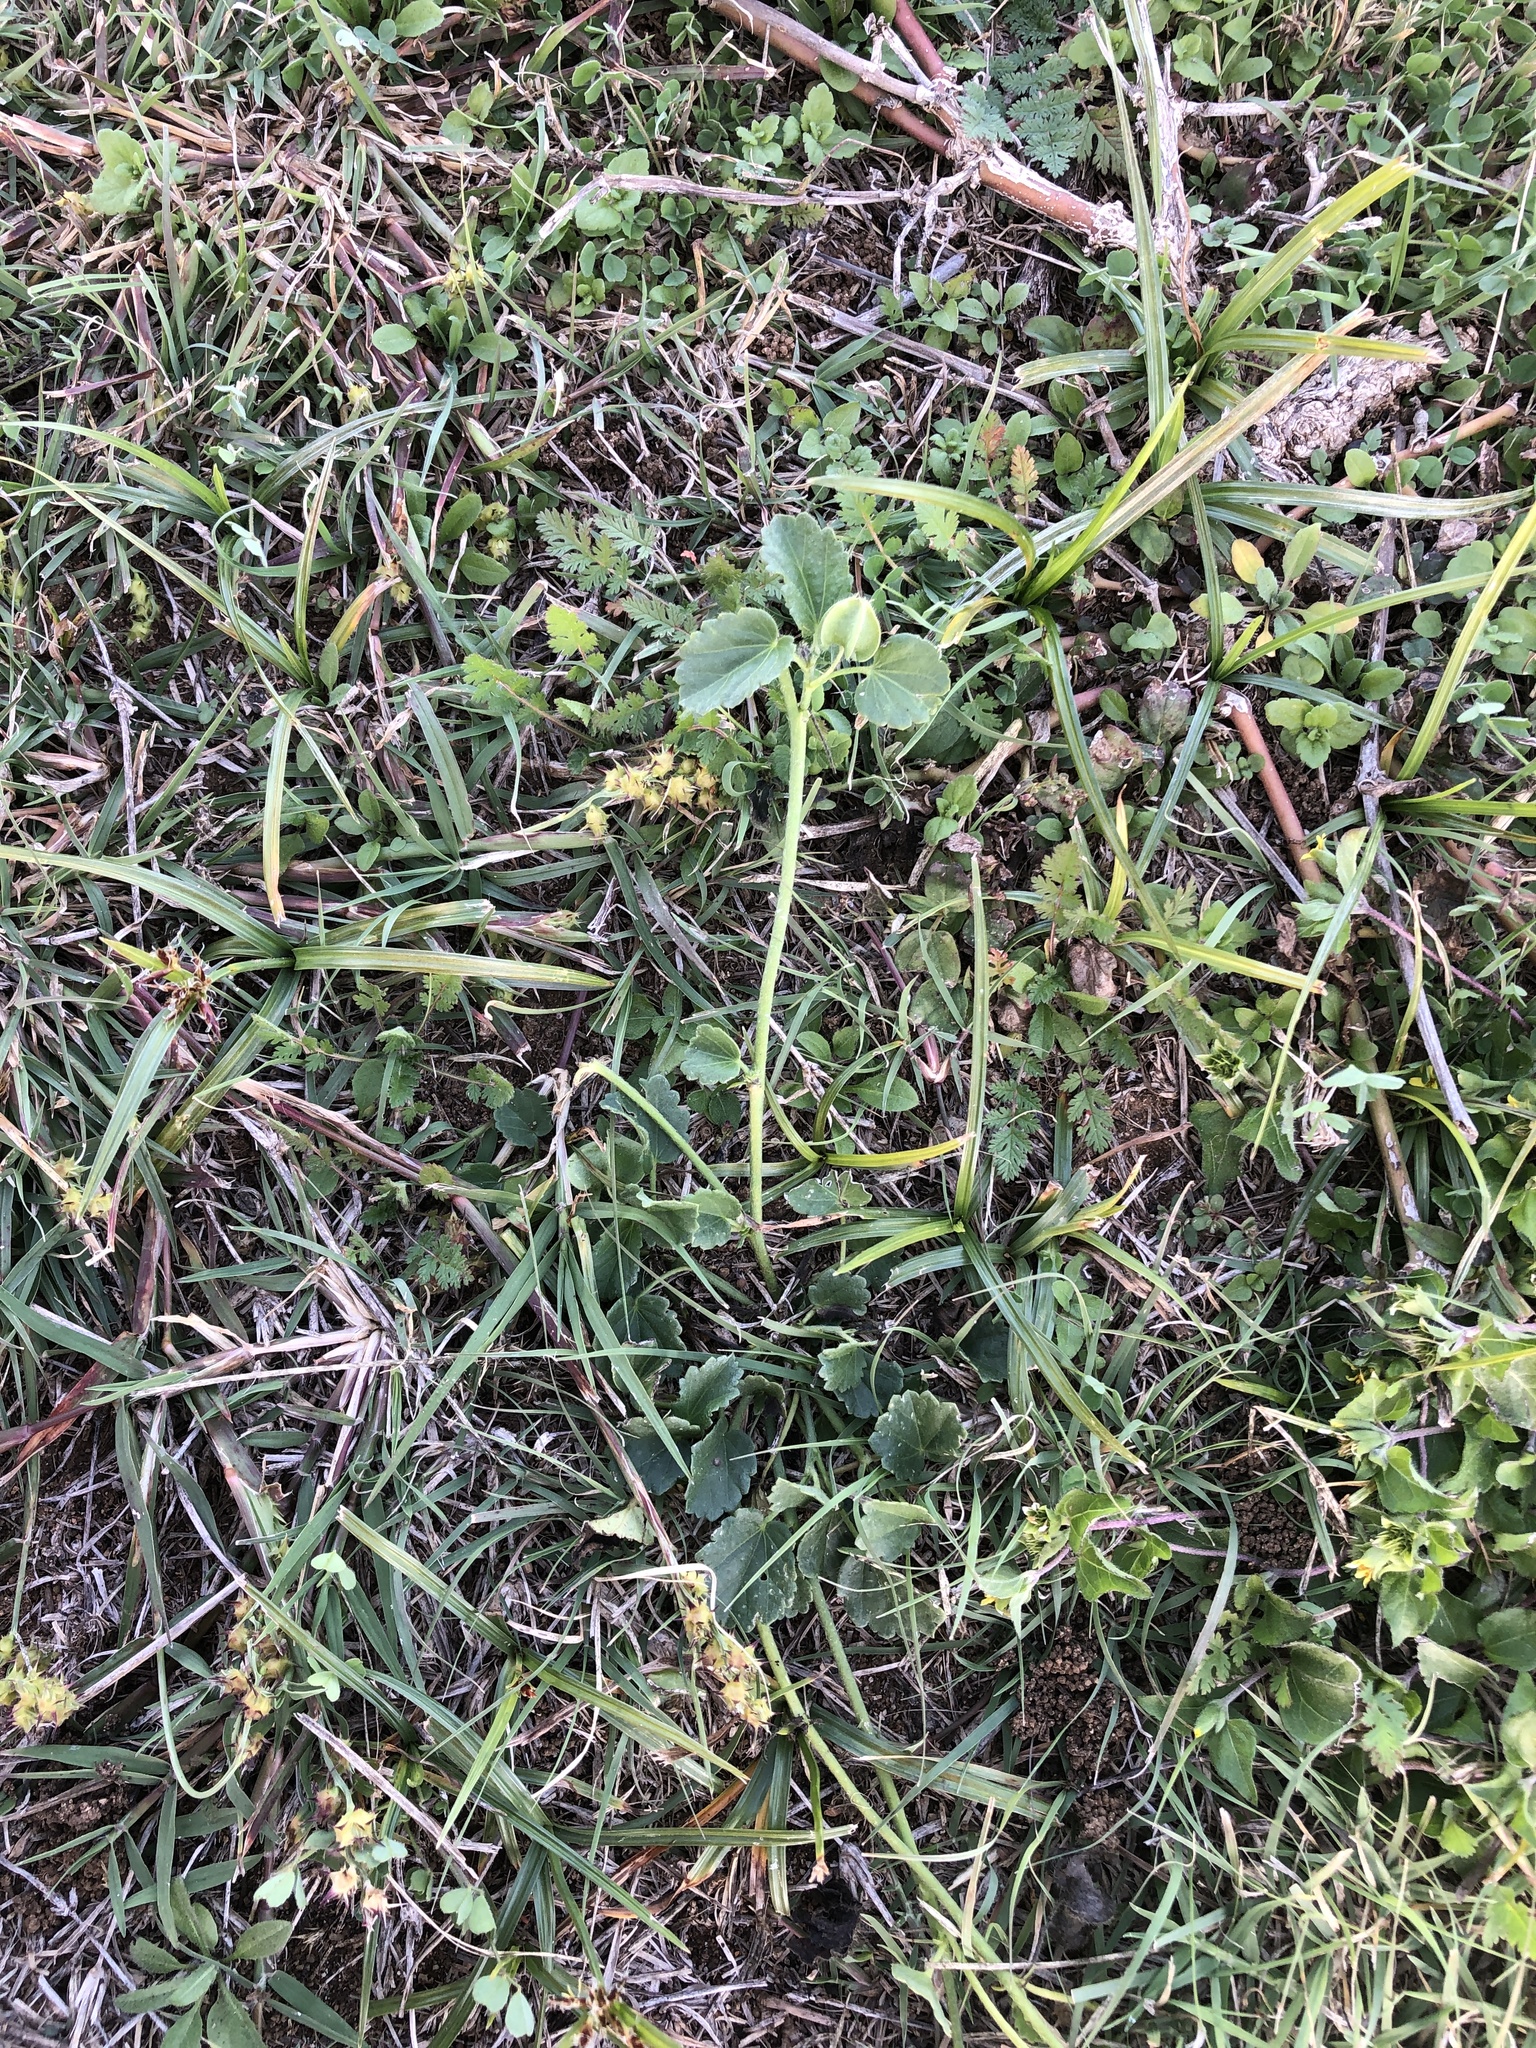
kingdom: Plantae
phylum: Tracheophyta
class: Magnoliopsida
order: Malvales
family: Malvaceae
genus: Rhynchosida
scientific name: Rhynchosida physocalyx
